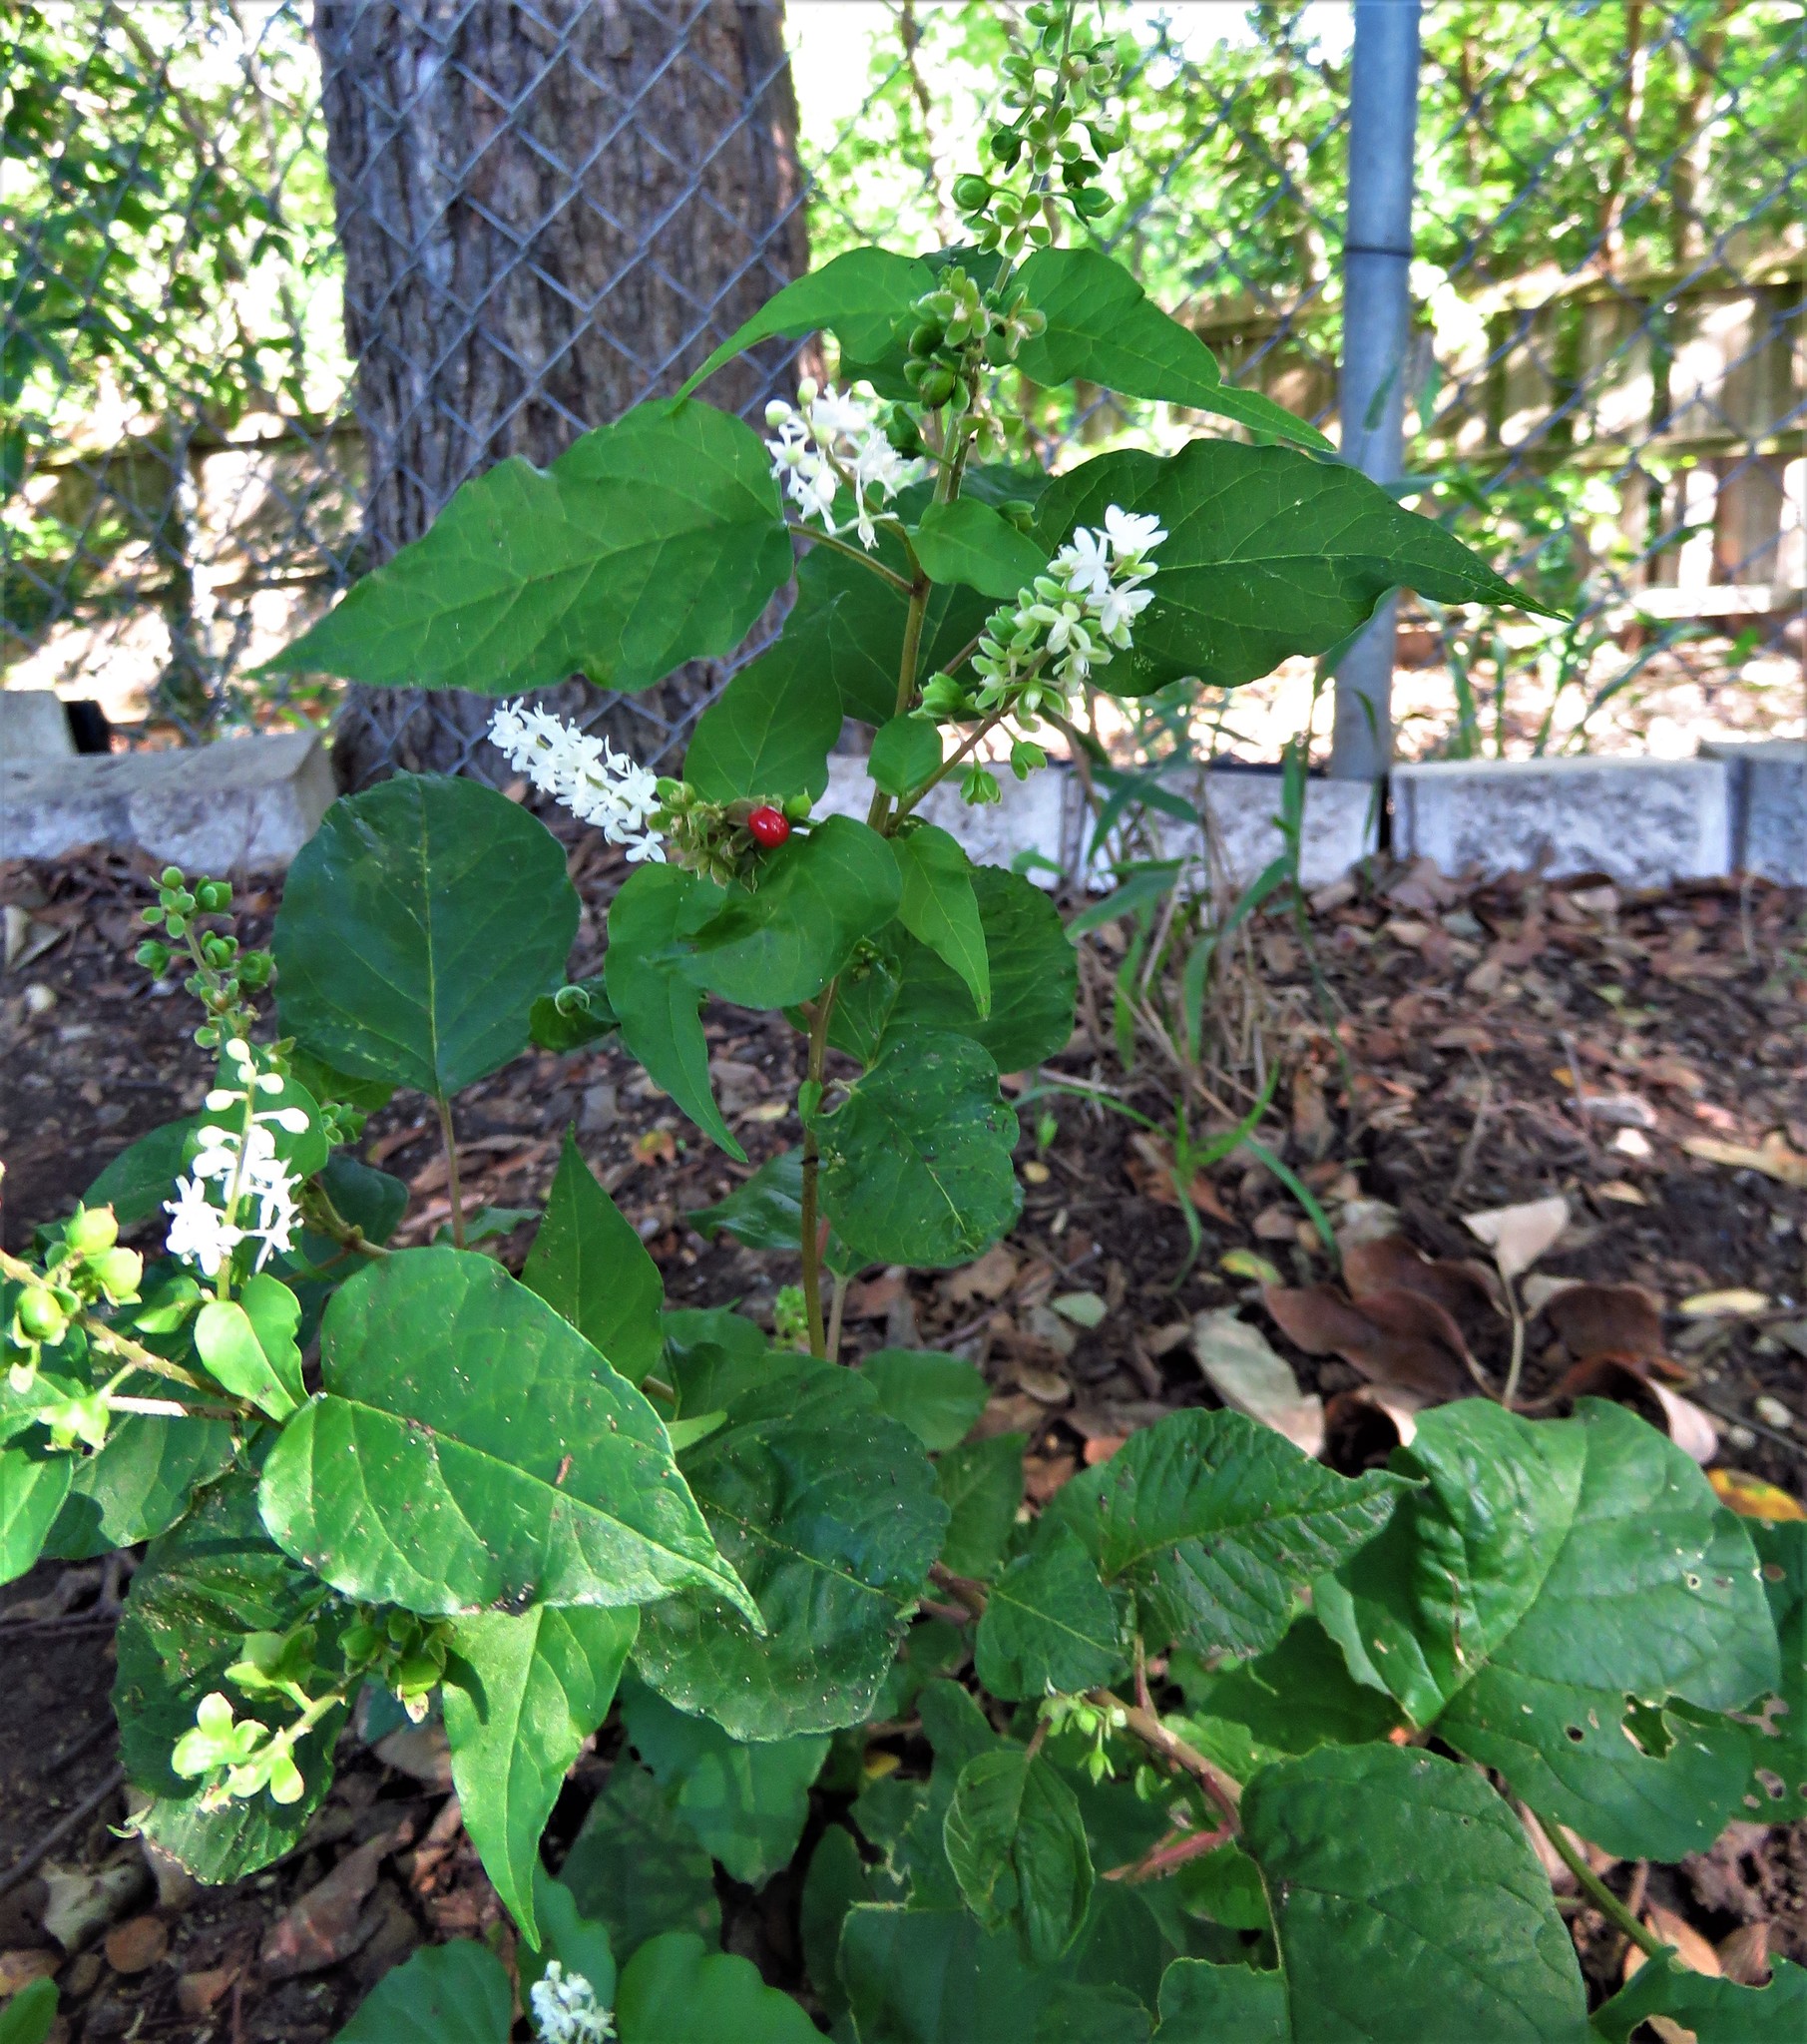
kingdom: Plantae
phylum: Tracheophyta
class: Magnoliopsida
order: Caryophyllales
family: Phytolaccaceae
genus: Rivina
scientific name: Rivina humilis
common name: Rougeplant
